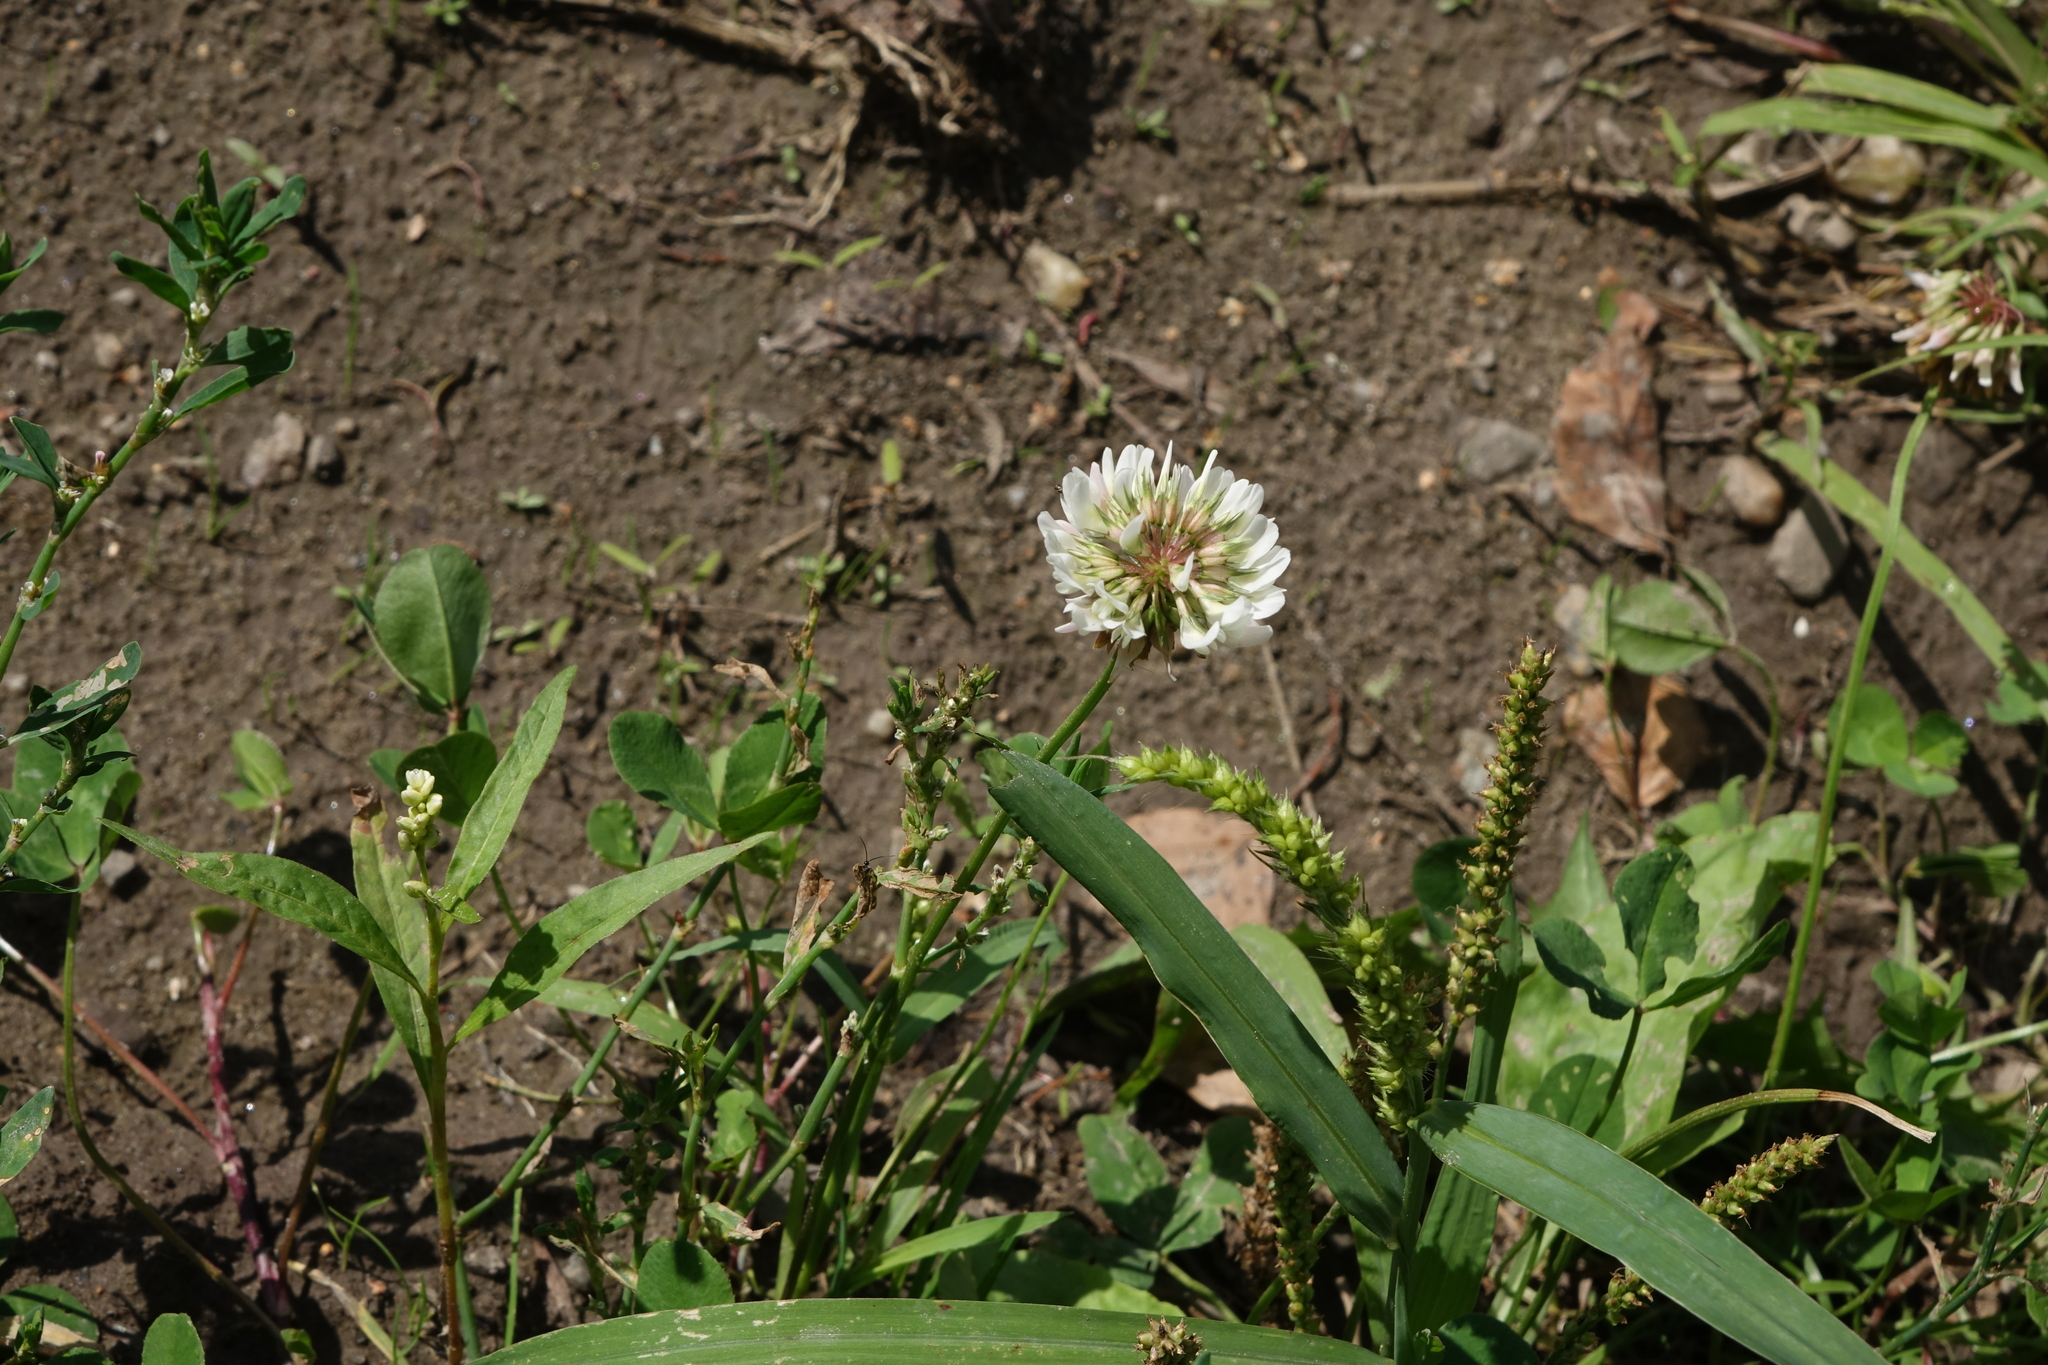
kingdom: Plantae
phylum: Tracheophyta
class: Magnoliopsida
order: Fabales
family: Fabaceae
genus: Trifolium
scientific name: Trifolium repens
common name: White clover
